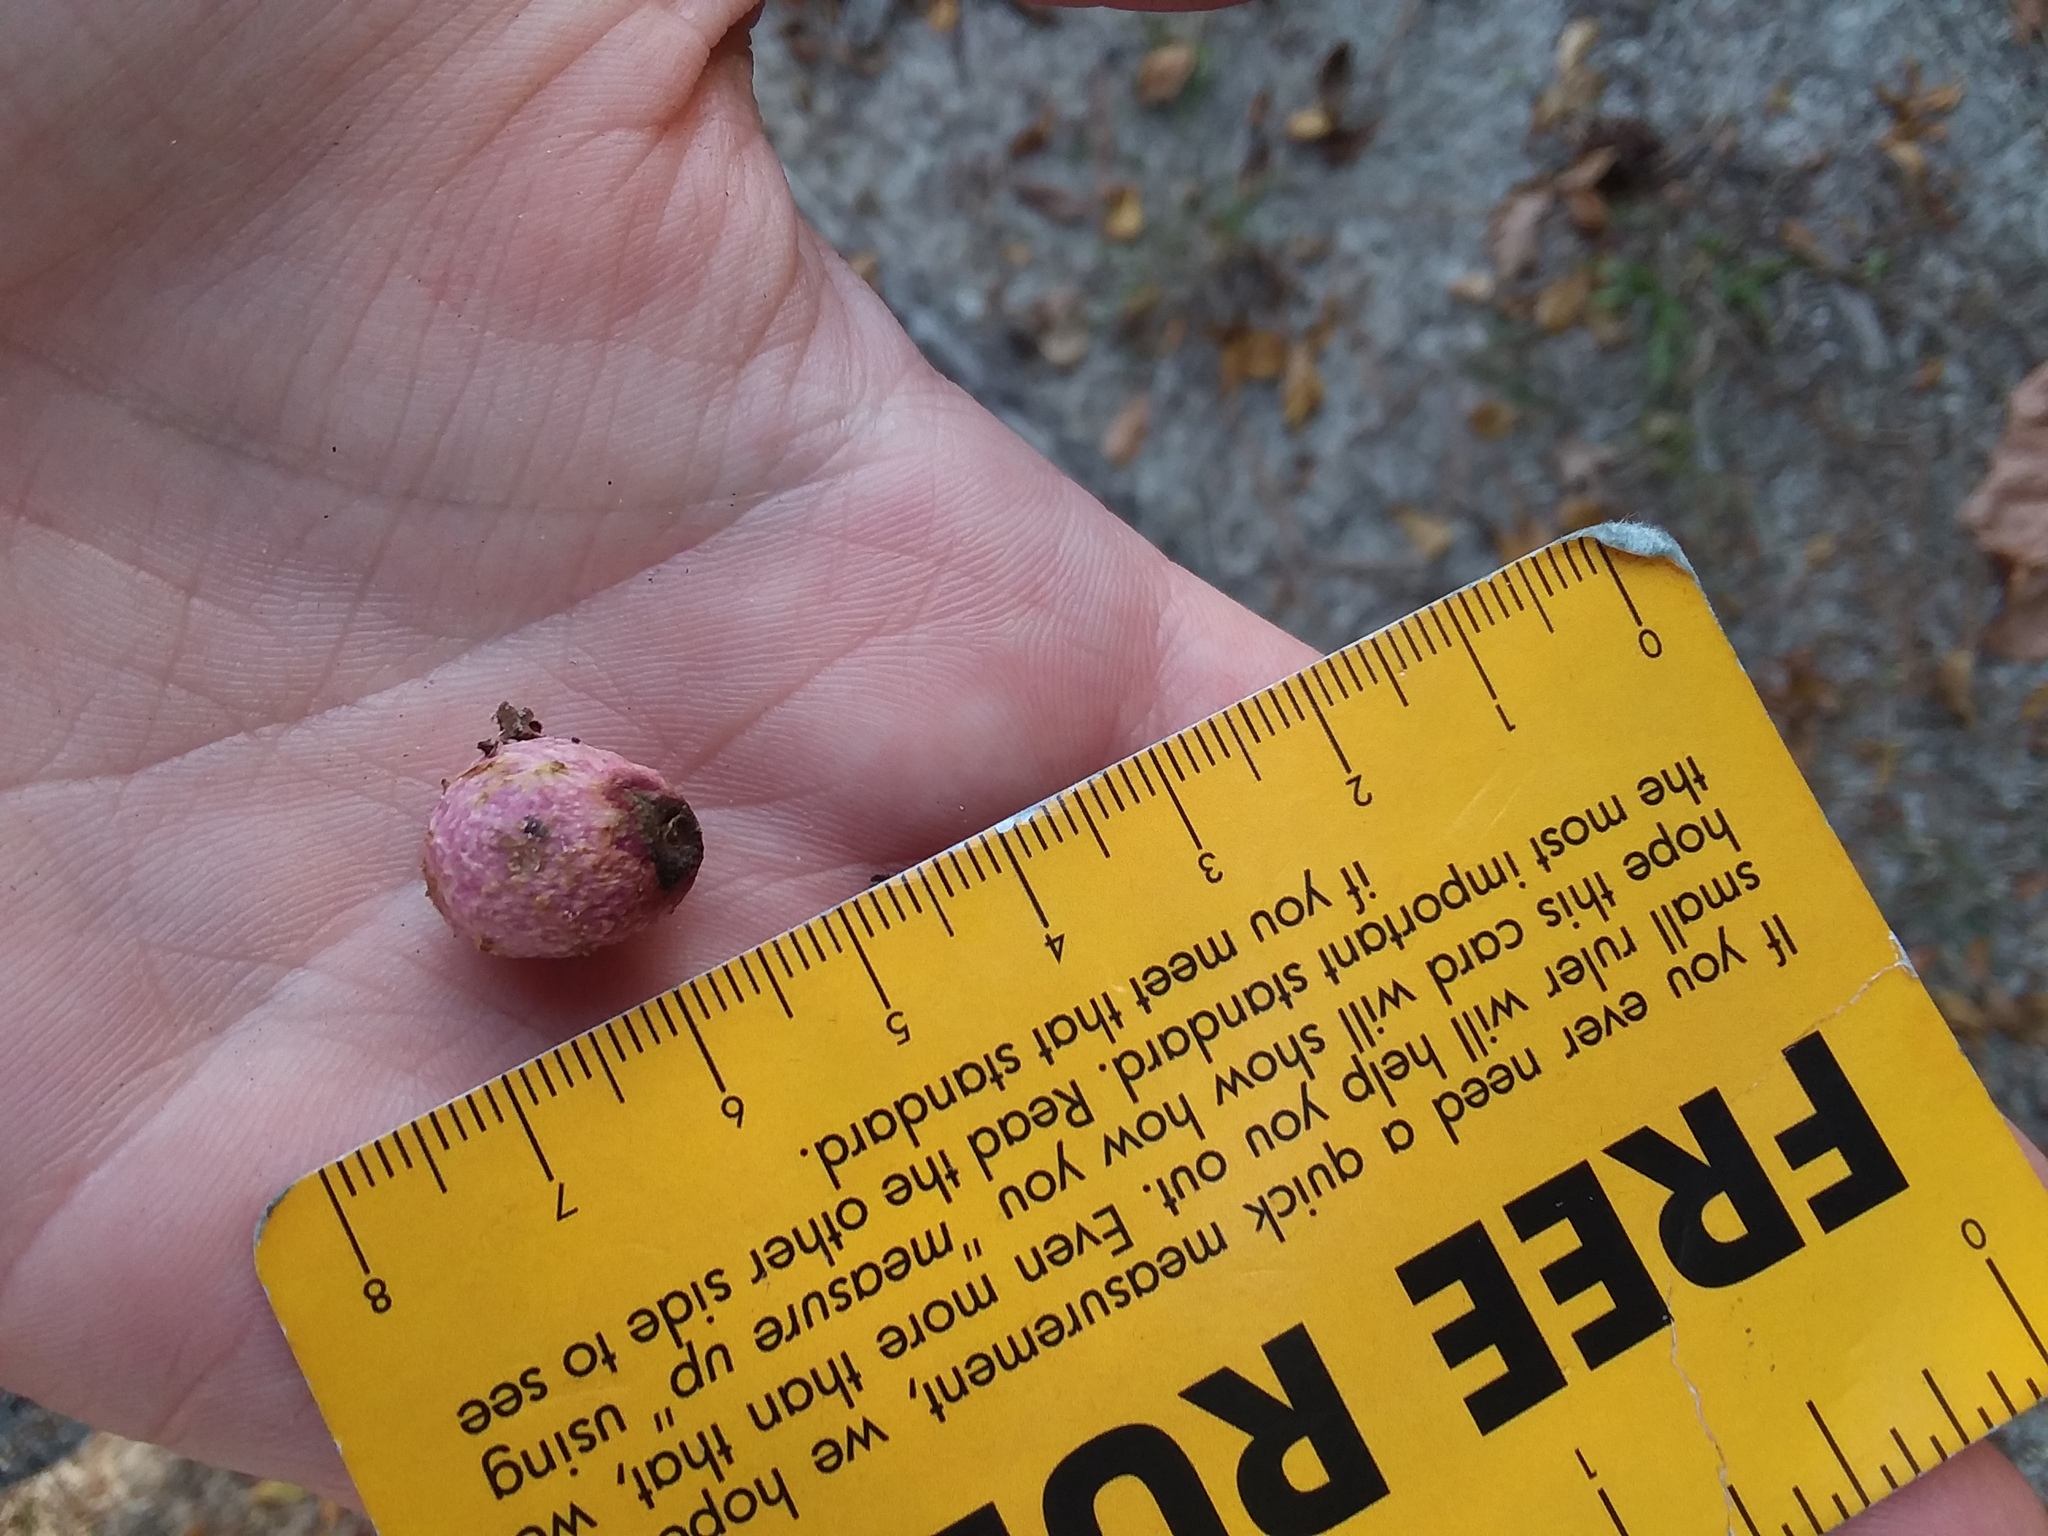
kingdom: Animalia
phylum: Arthropoda
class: Insecta
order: Hymenoptera
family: Cynipidae
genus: Amphibolips
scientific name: Amphibolips
